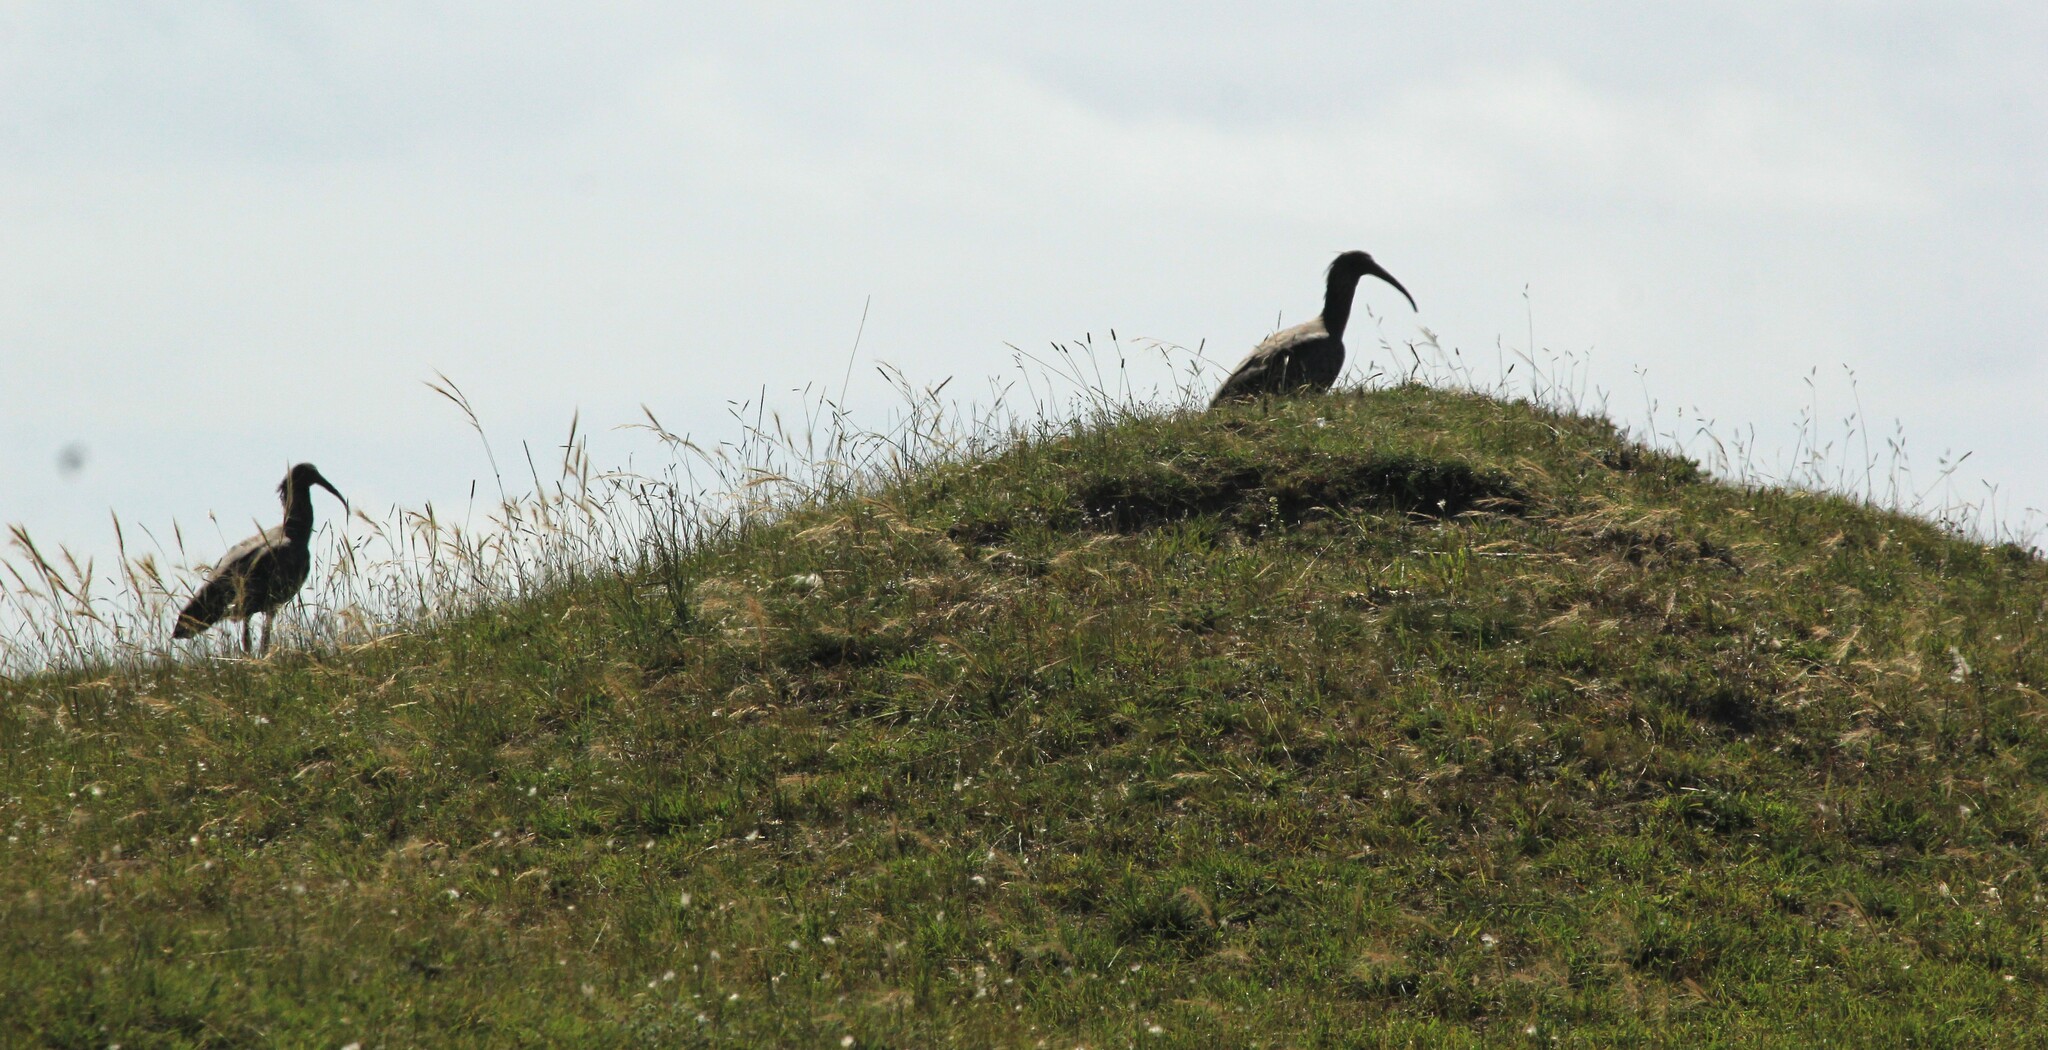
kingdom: Animalia
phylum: Chordata
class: Aves
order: Pelecaniformes
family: Threskiornithidae
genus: Theristicus
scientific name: Theristicus caerulescens
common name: Plumbeous ibis
